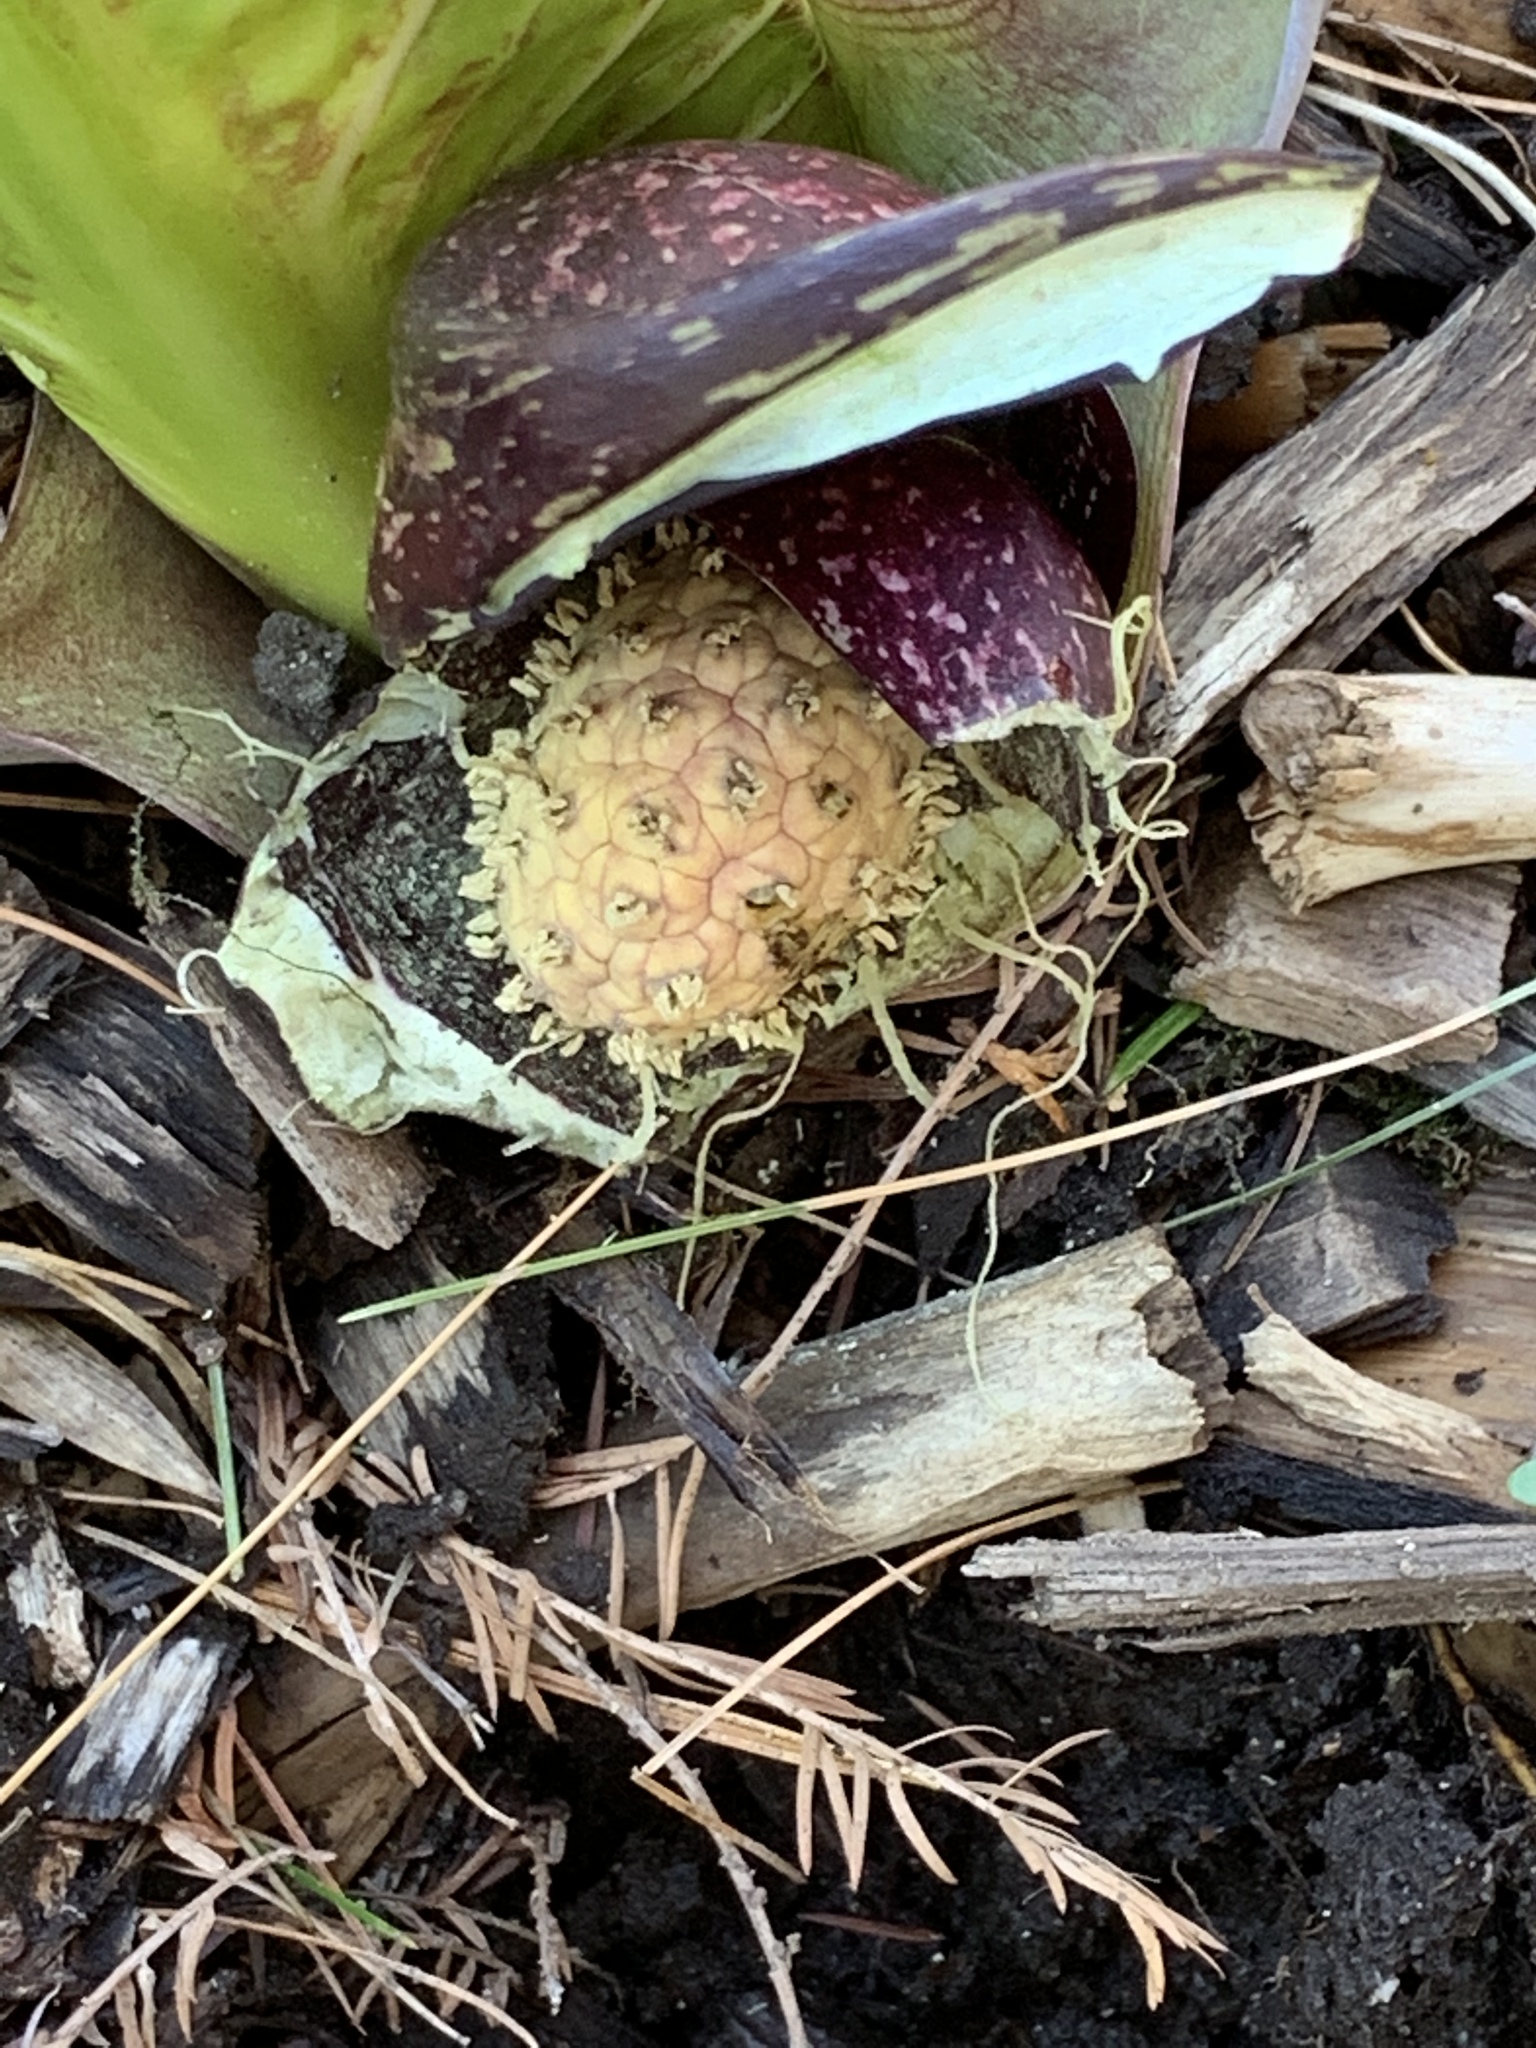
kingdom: Plantae
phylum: Tracheophyta
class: Liliopsida
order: Alismatales
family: Araceae
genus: Symplocarpus
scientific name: Symplocarpus foetidus
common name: Eastern skunk cabbage
